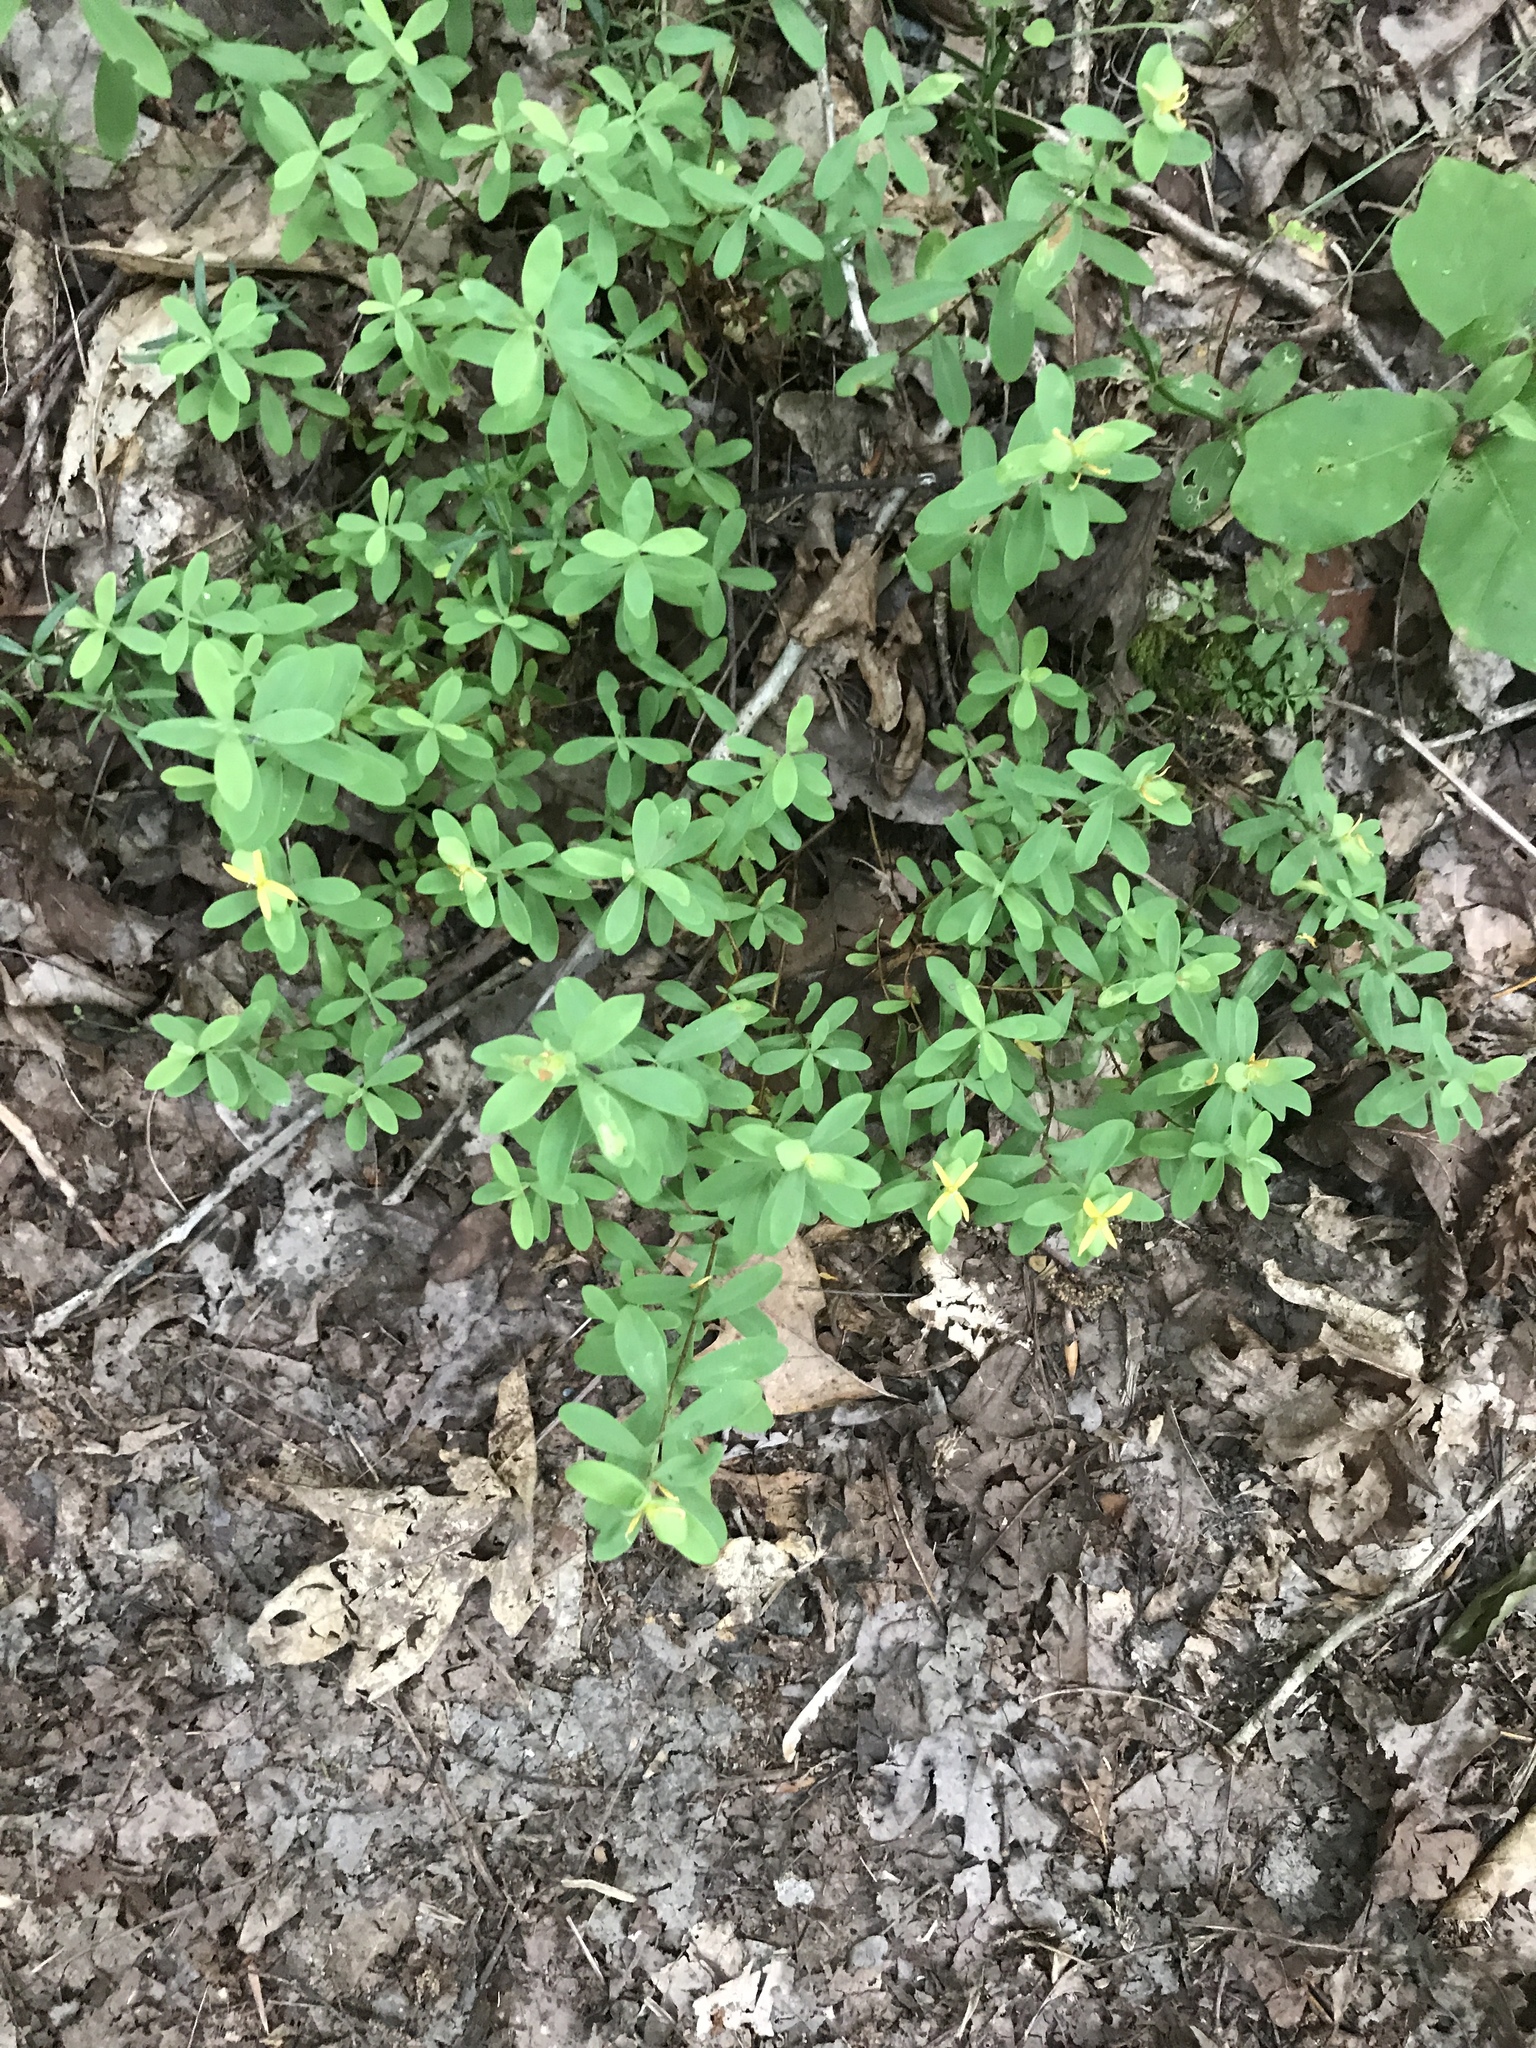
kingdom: Plantae
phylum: Tracheophyta
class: Magnoliopsida
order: Malpighiales
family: Hypericaceae
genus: Hypericum
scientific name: Hypericum hypericoides
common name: St. andrew's cross
